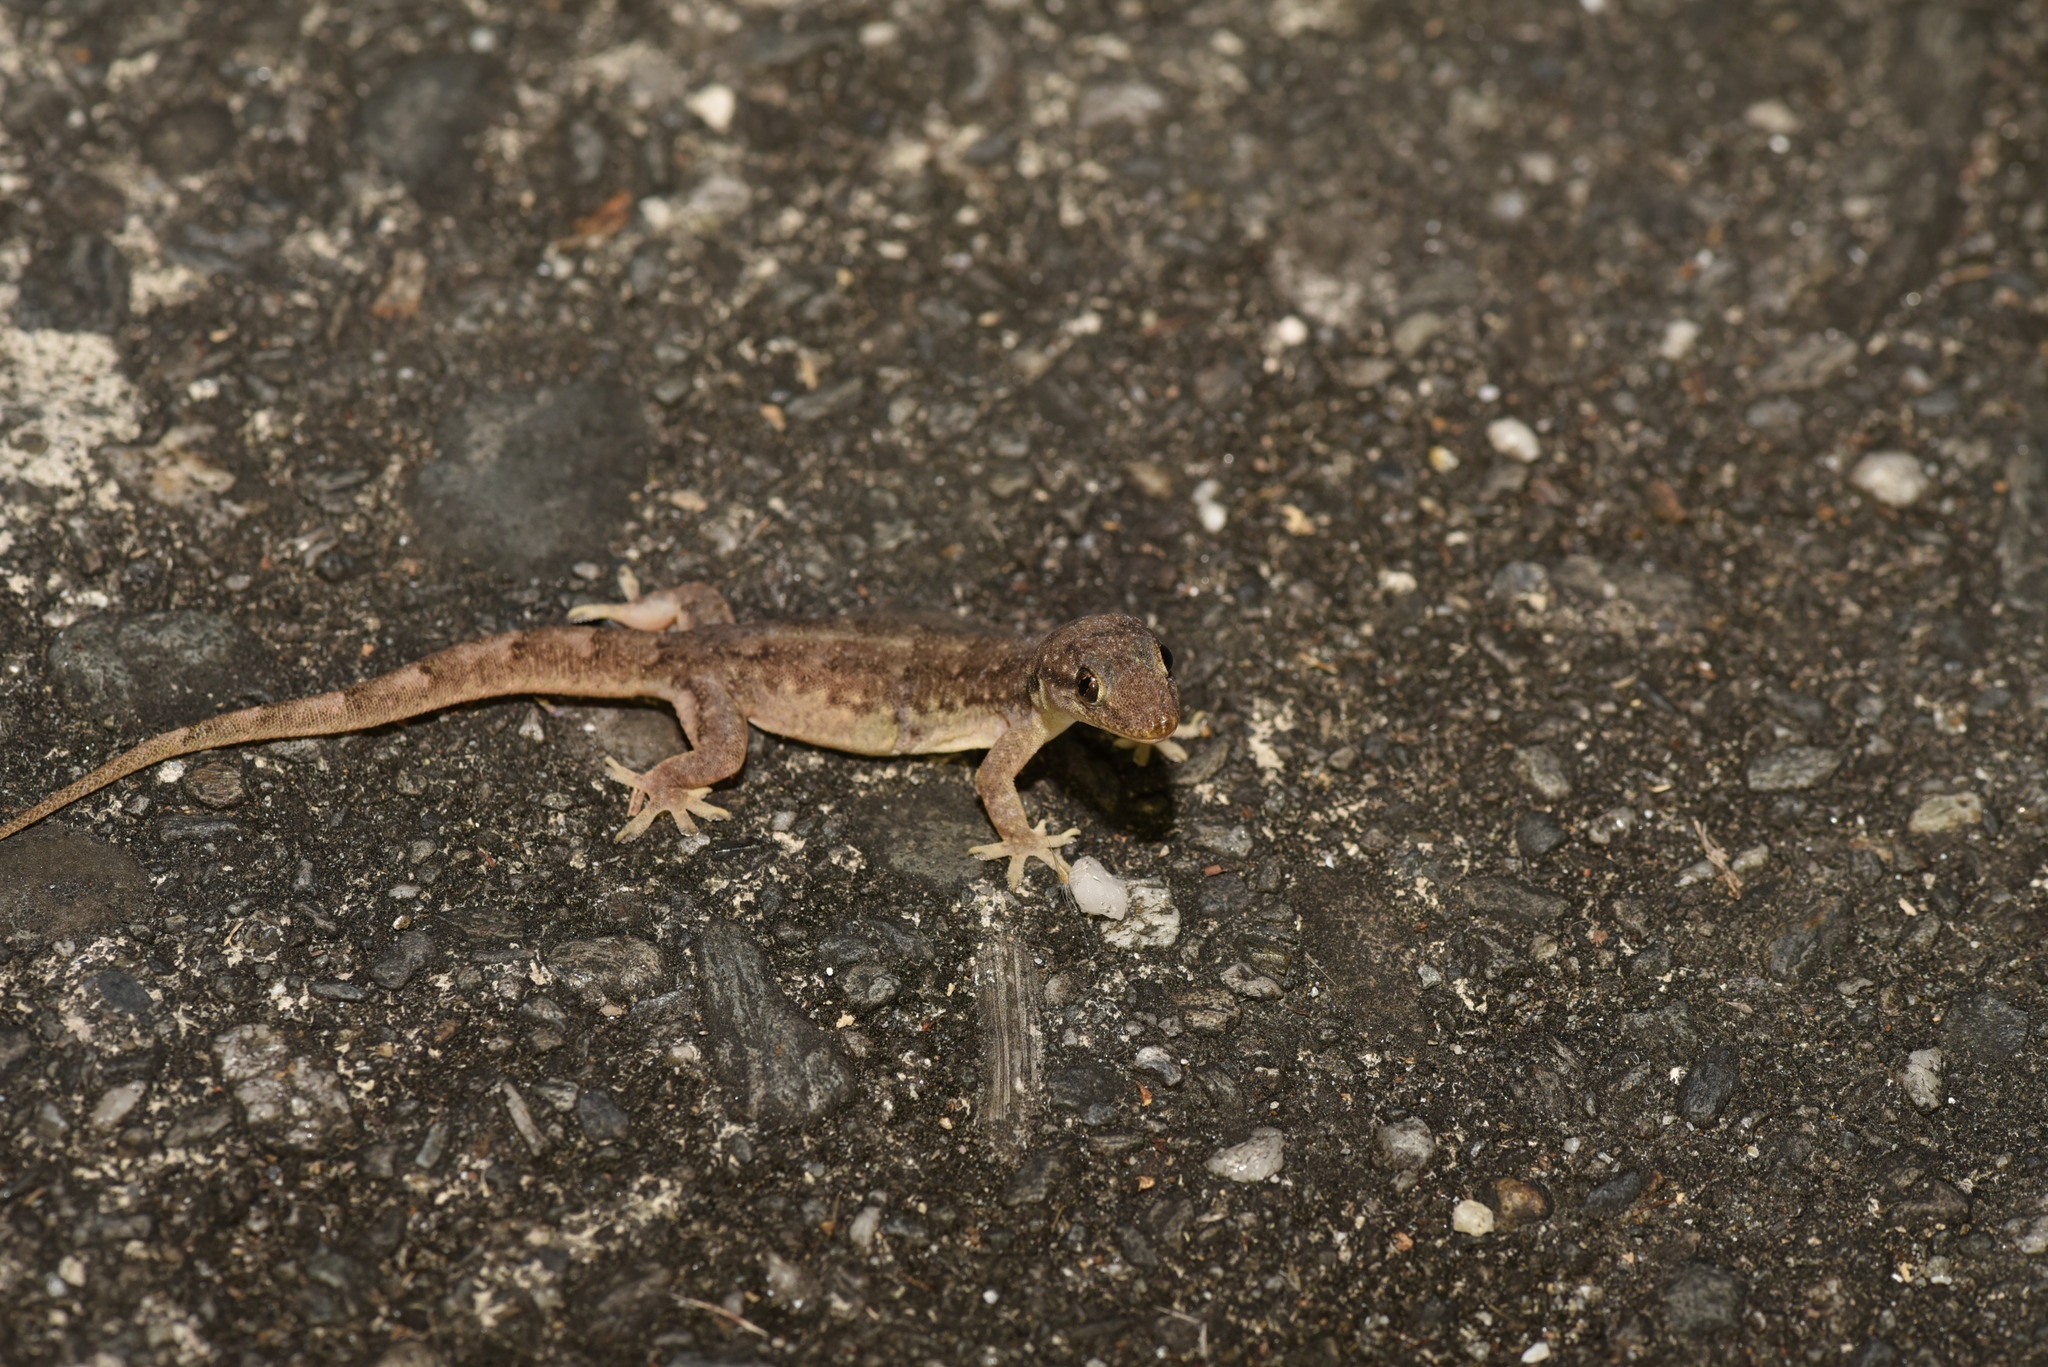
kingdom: Animalia
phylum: Chordata
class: Squamata
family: Gekkonidae
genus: Hemidactylus
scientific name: Hemidactylus bowringii
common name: Oriental leaf-toed gecko
